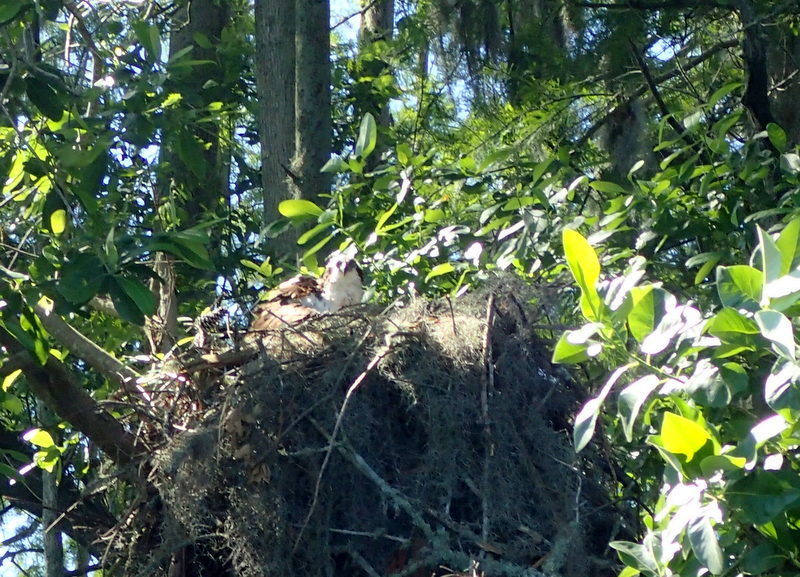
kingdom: Animalia
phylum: Chordata
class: Aves
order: Accipitriformes
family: Pandionidae
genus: Pandion
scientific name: Pandion haliaetus
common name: Osprey
